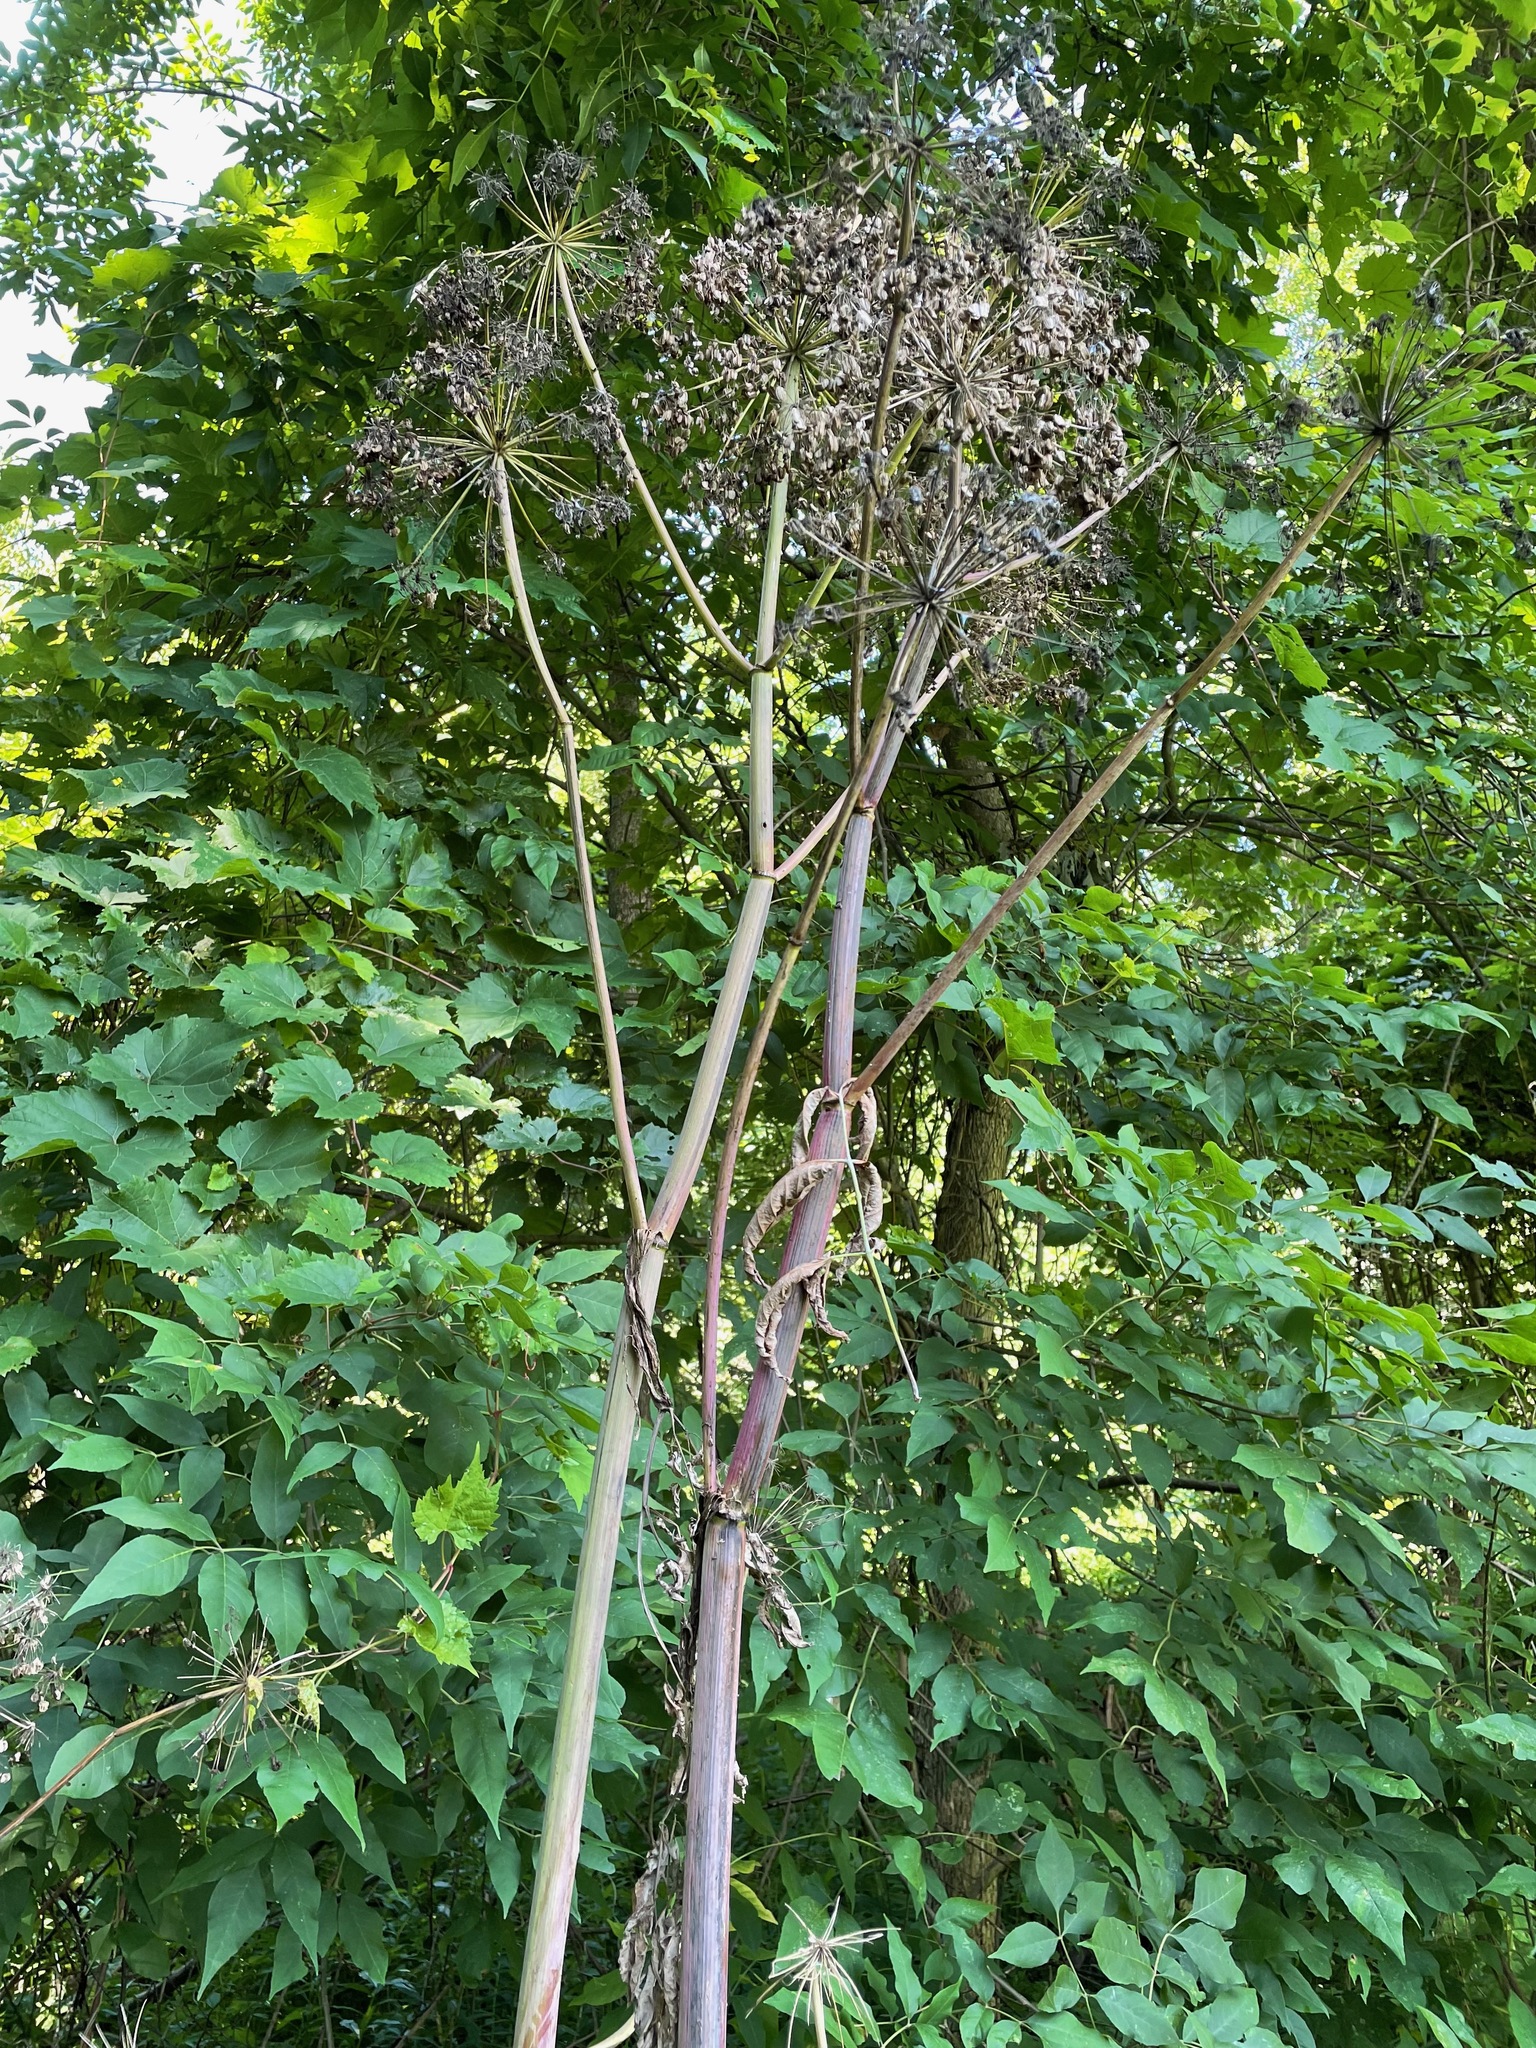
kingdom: Plantae
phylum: Tracheophyta
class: Magnoliopsida
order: Apiales
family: Apiaceae
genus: Angelica
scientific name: Angelica atropurpurea
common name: Great angelica
